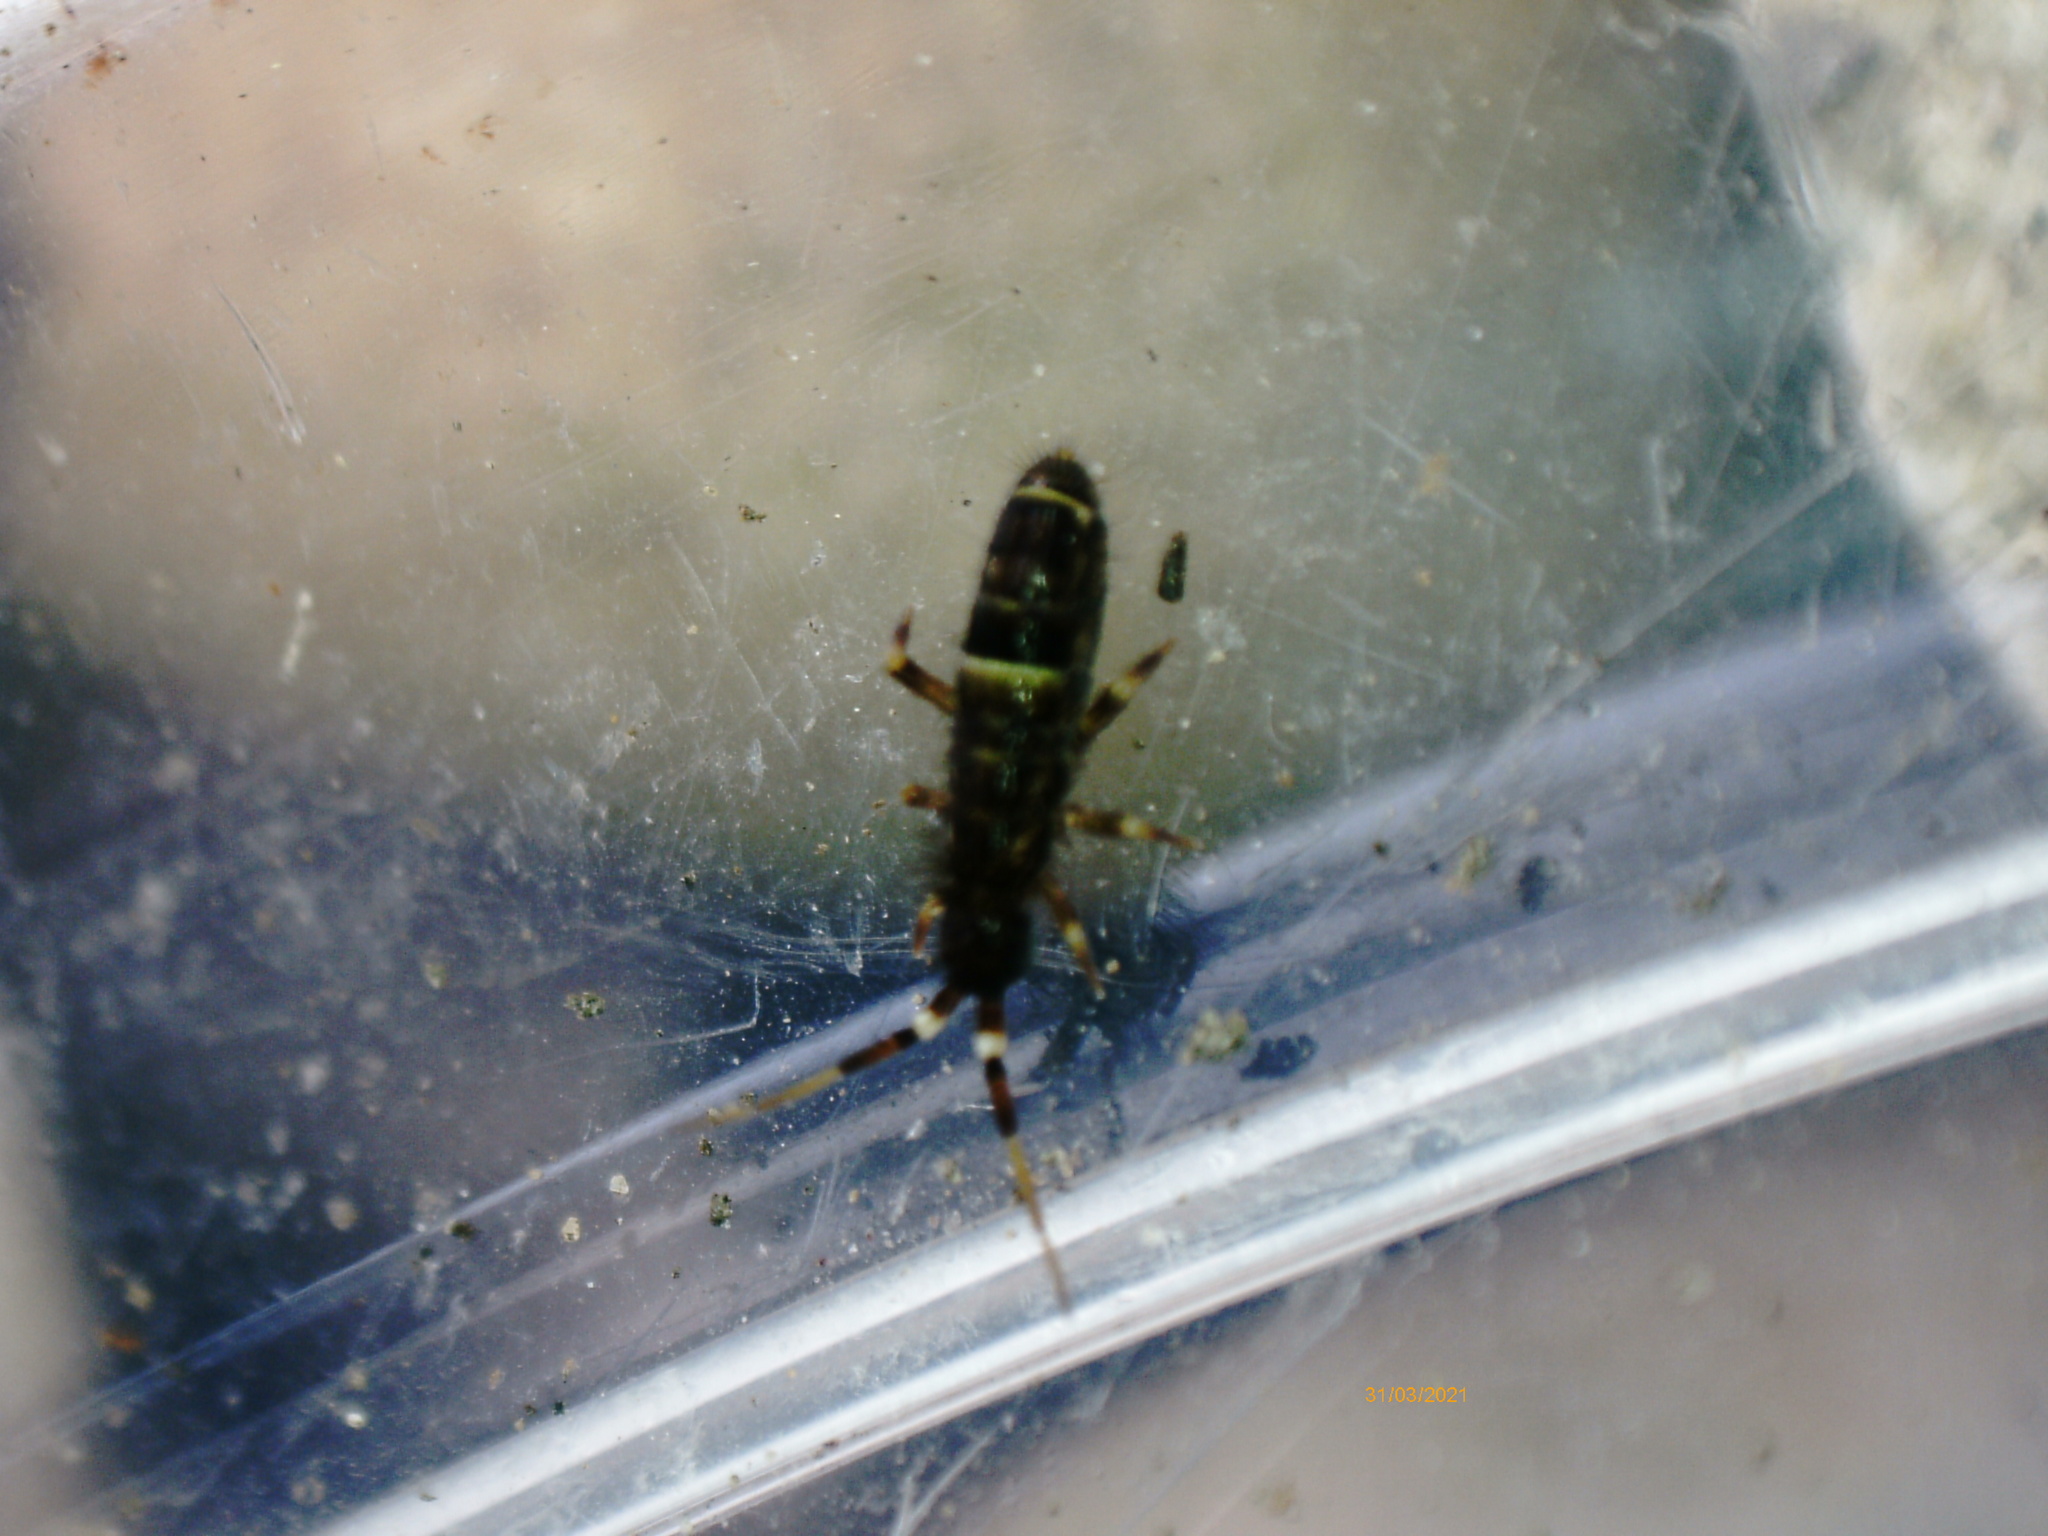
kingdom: Animalia
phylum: Arthropoda
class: Collembola
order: Entomobryomorpha
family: Orchesellidae
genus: Orchesella
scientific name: Orchesella cincta
